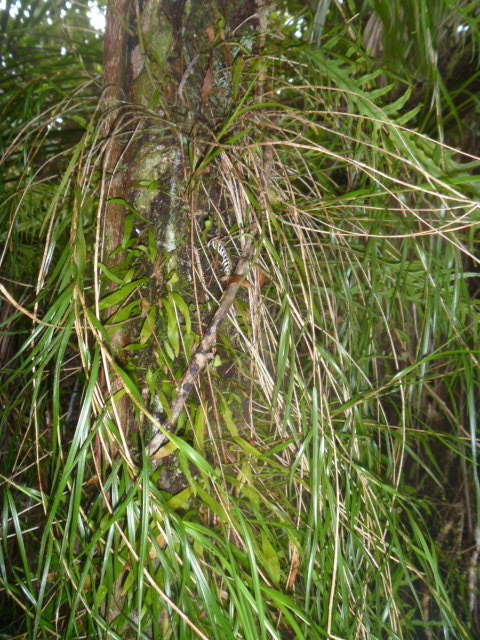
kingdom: Plantae
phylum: Tracheophyta
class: Liliopsida
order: Asparagales
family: Orchidaceae
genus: Earina
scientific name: Earina mucronata
